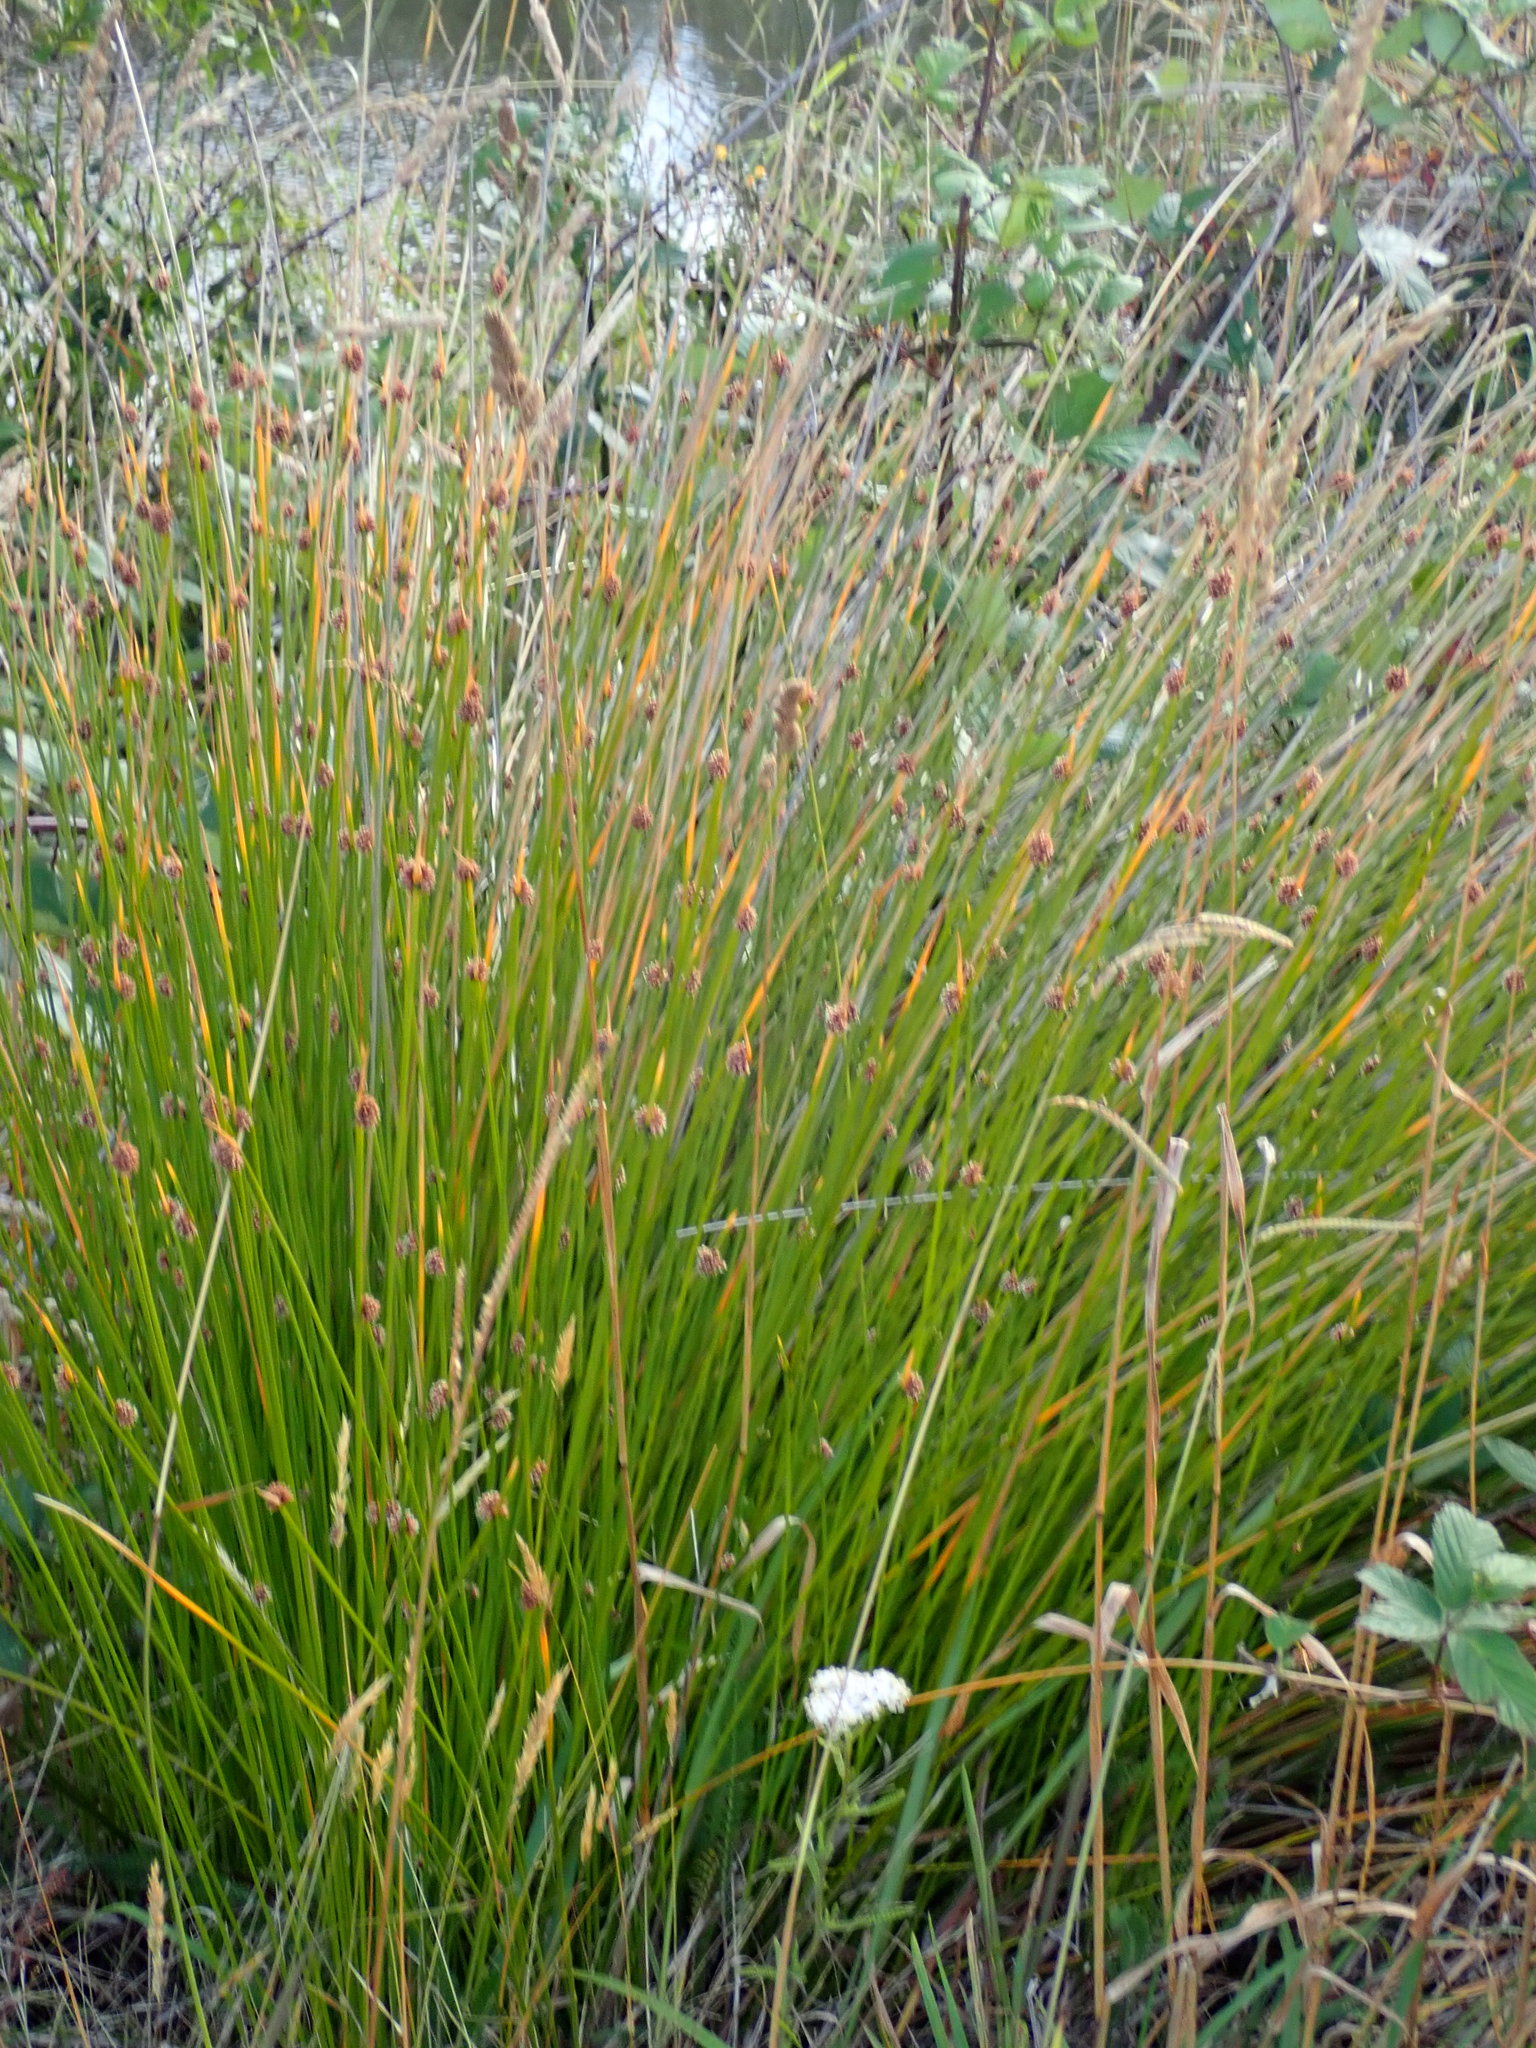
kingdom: Plantae
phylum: Tracheophyta
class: Liliopsida
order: Poales
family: Cyperaceae
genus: Ficinia
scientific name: Ficinia nodosa
